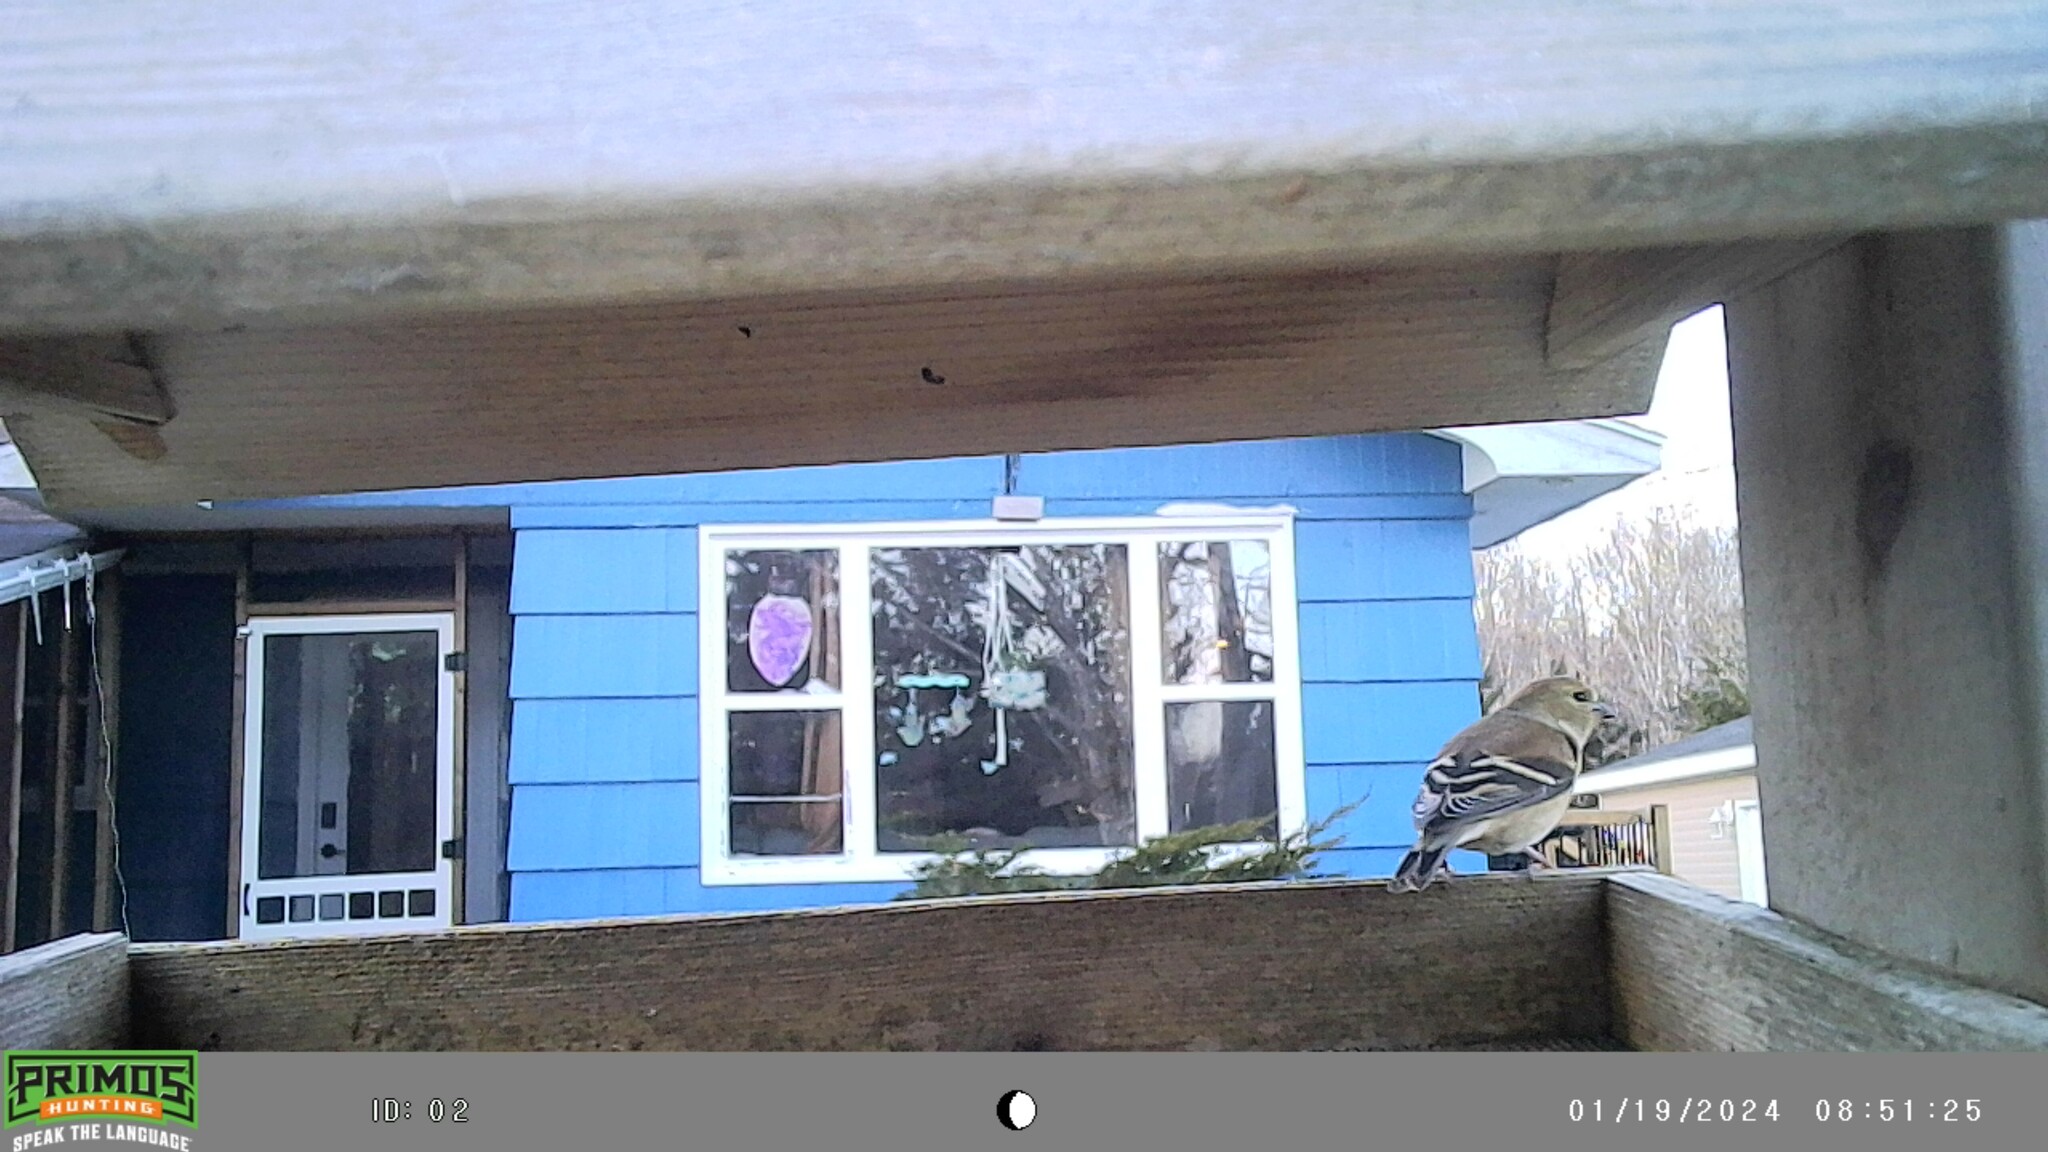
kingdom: Animalia
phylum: Chordata
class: Aves
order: Passeriformes
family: Fringillidae
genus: Spinus
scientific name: Spinus tristis
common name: American goldfinch
